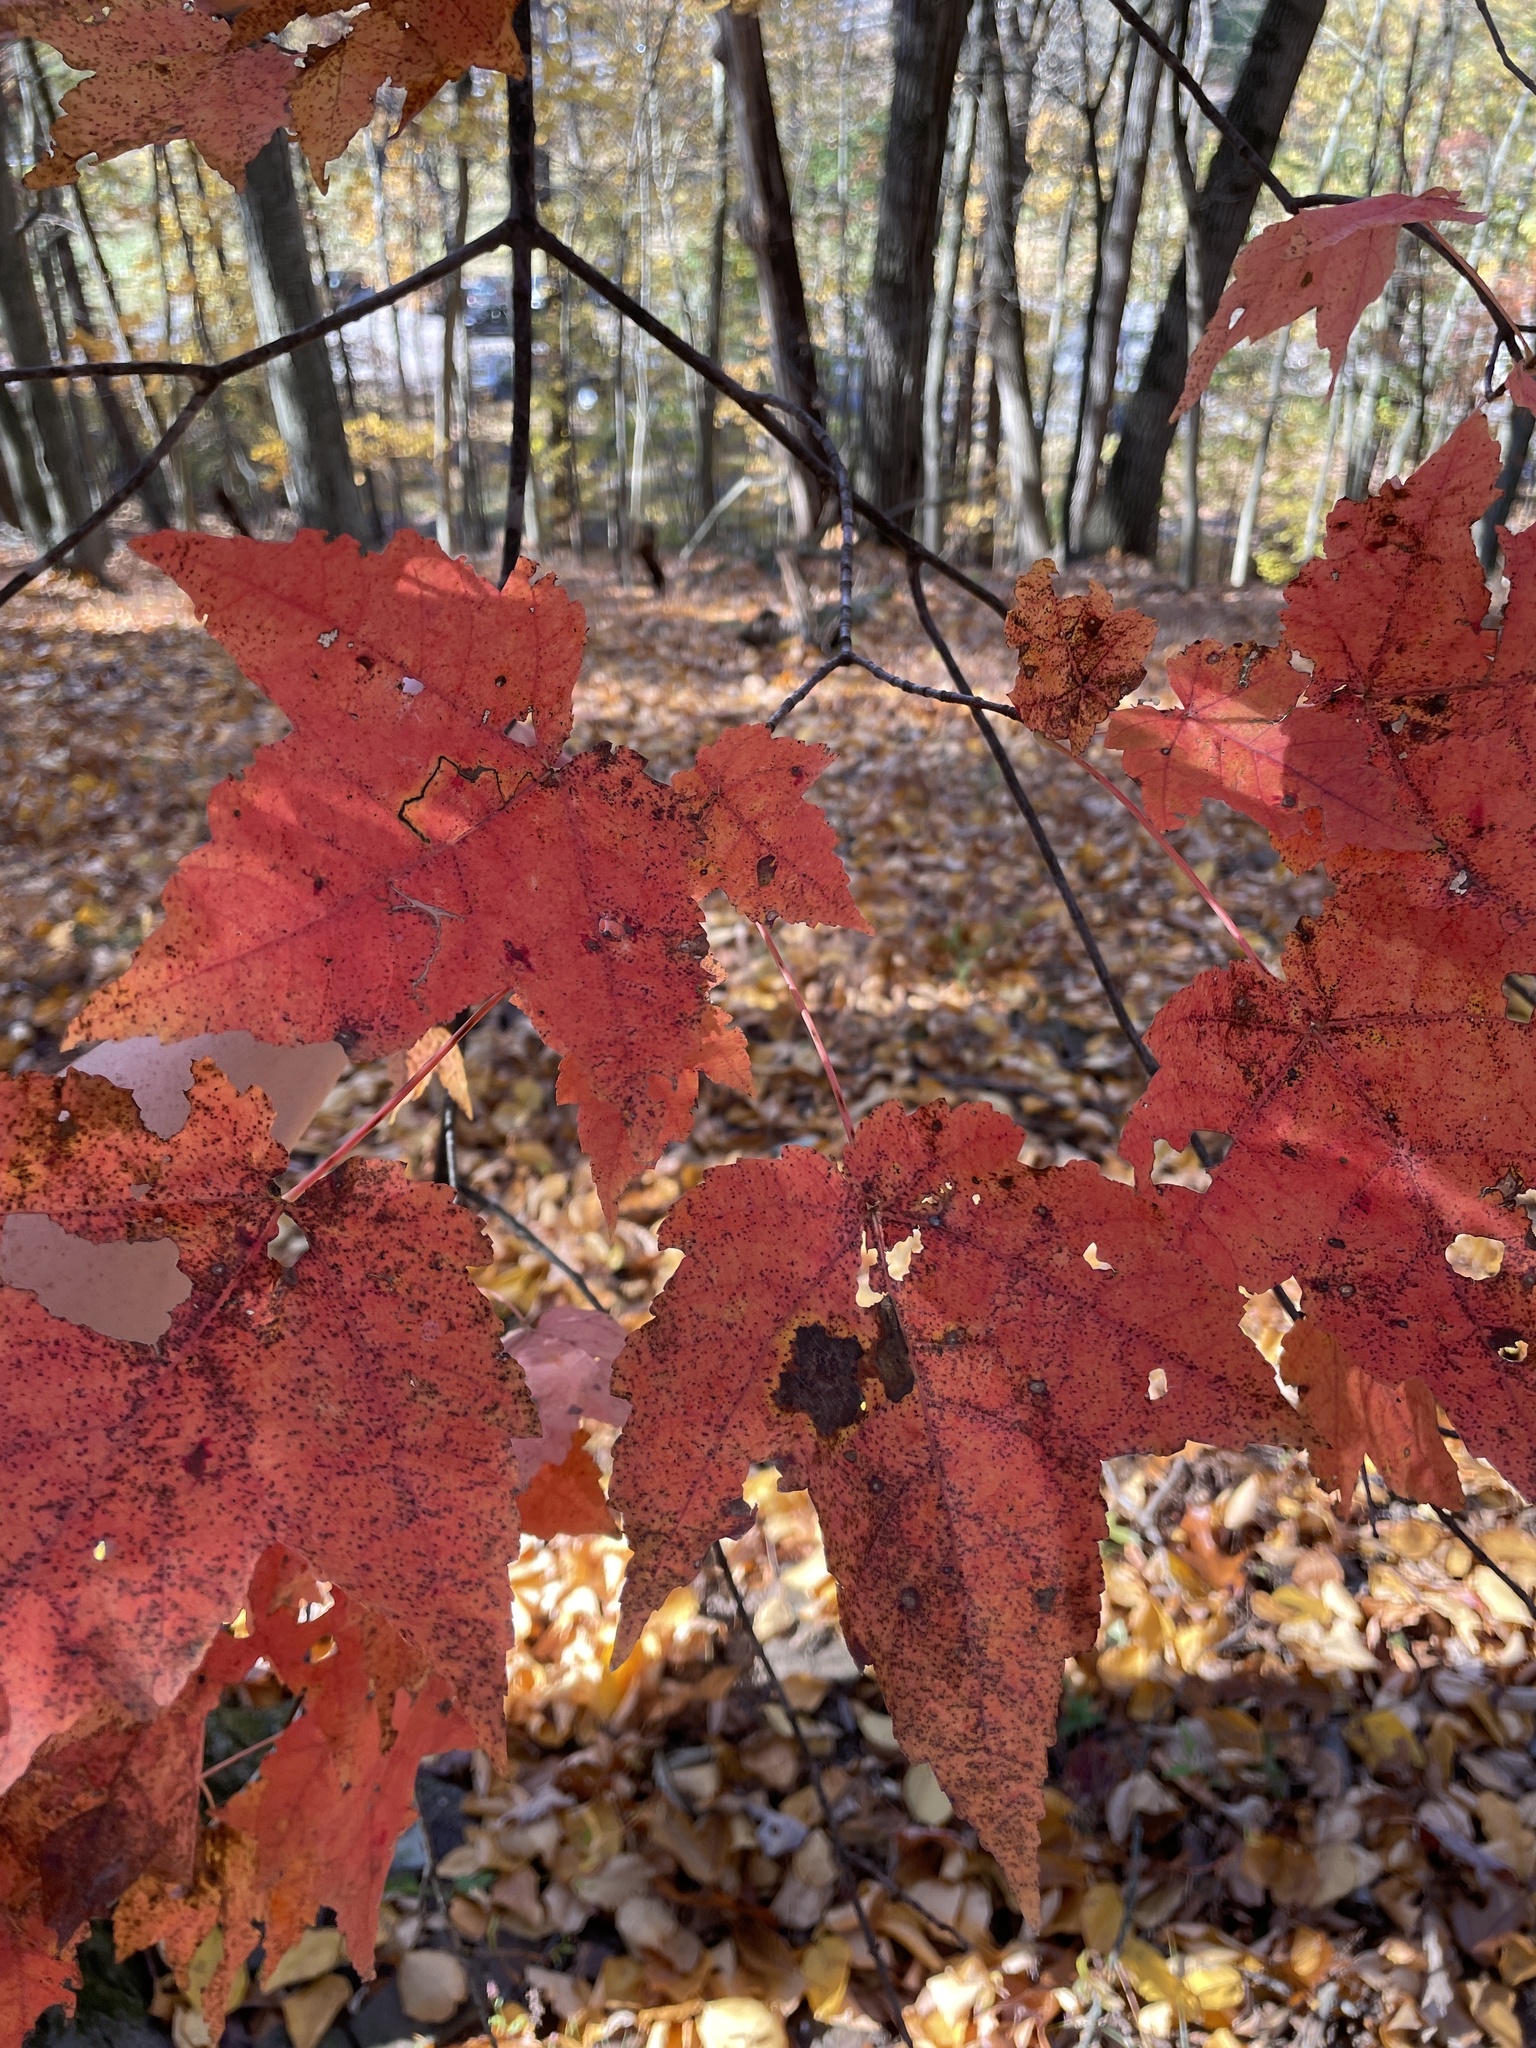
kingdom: Plantae
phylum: Tracheophyta
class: Magnoliopsida
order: Sapindales
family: Sapindaceae
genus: Acer
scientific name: Acer rubrum
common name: Red maple
